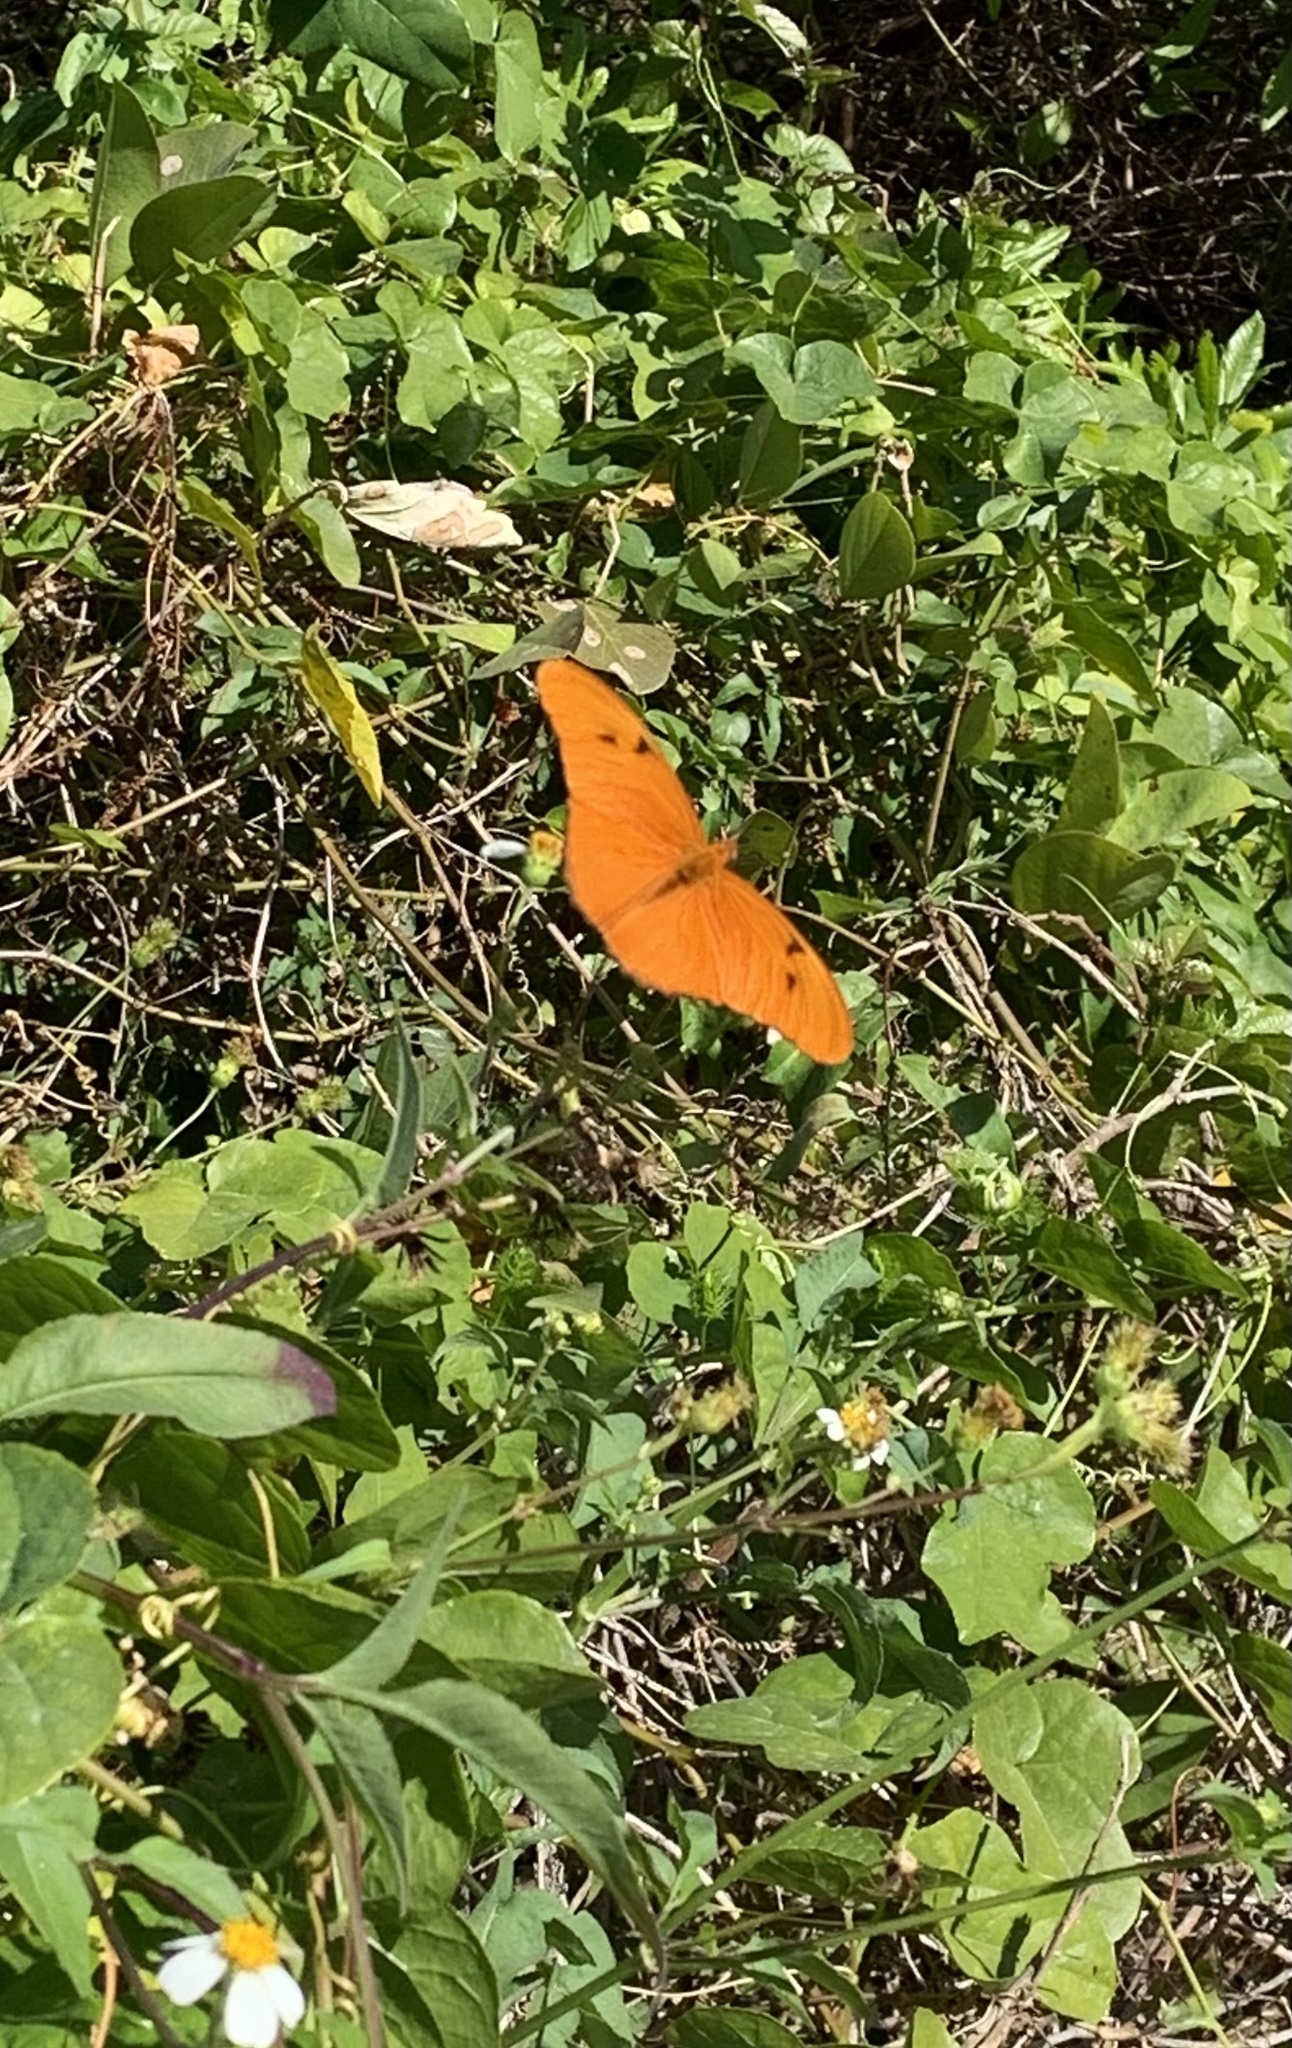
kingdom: Animalia
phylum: Arthropoda
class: Insecta
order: Lepidoptera
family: Nymphalidae
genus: Dryas
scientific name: Dryas iulia
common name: Flambeau
